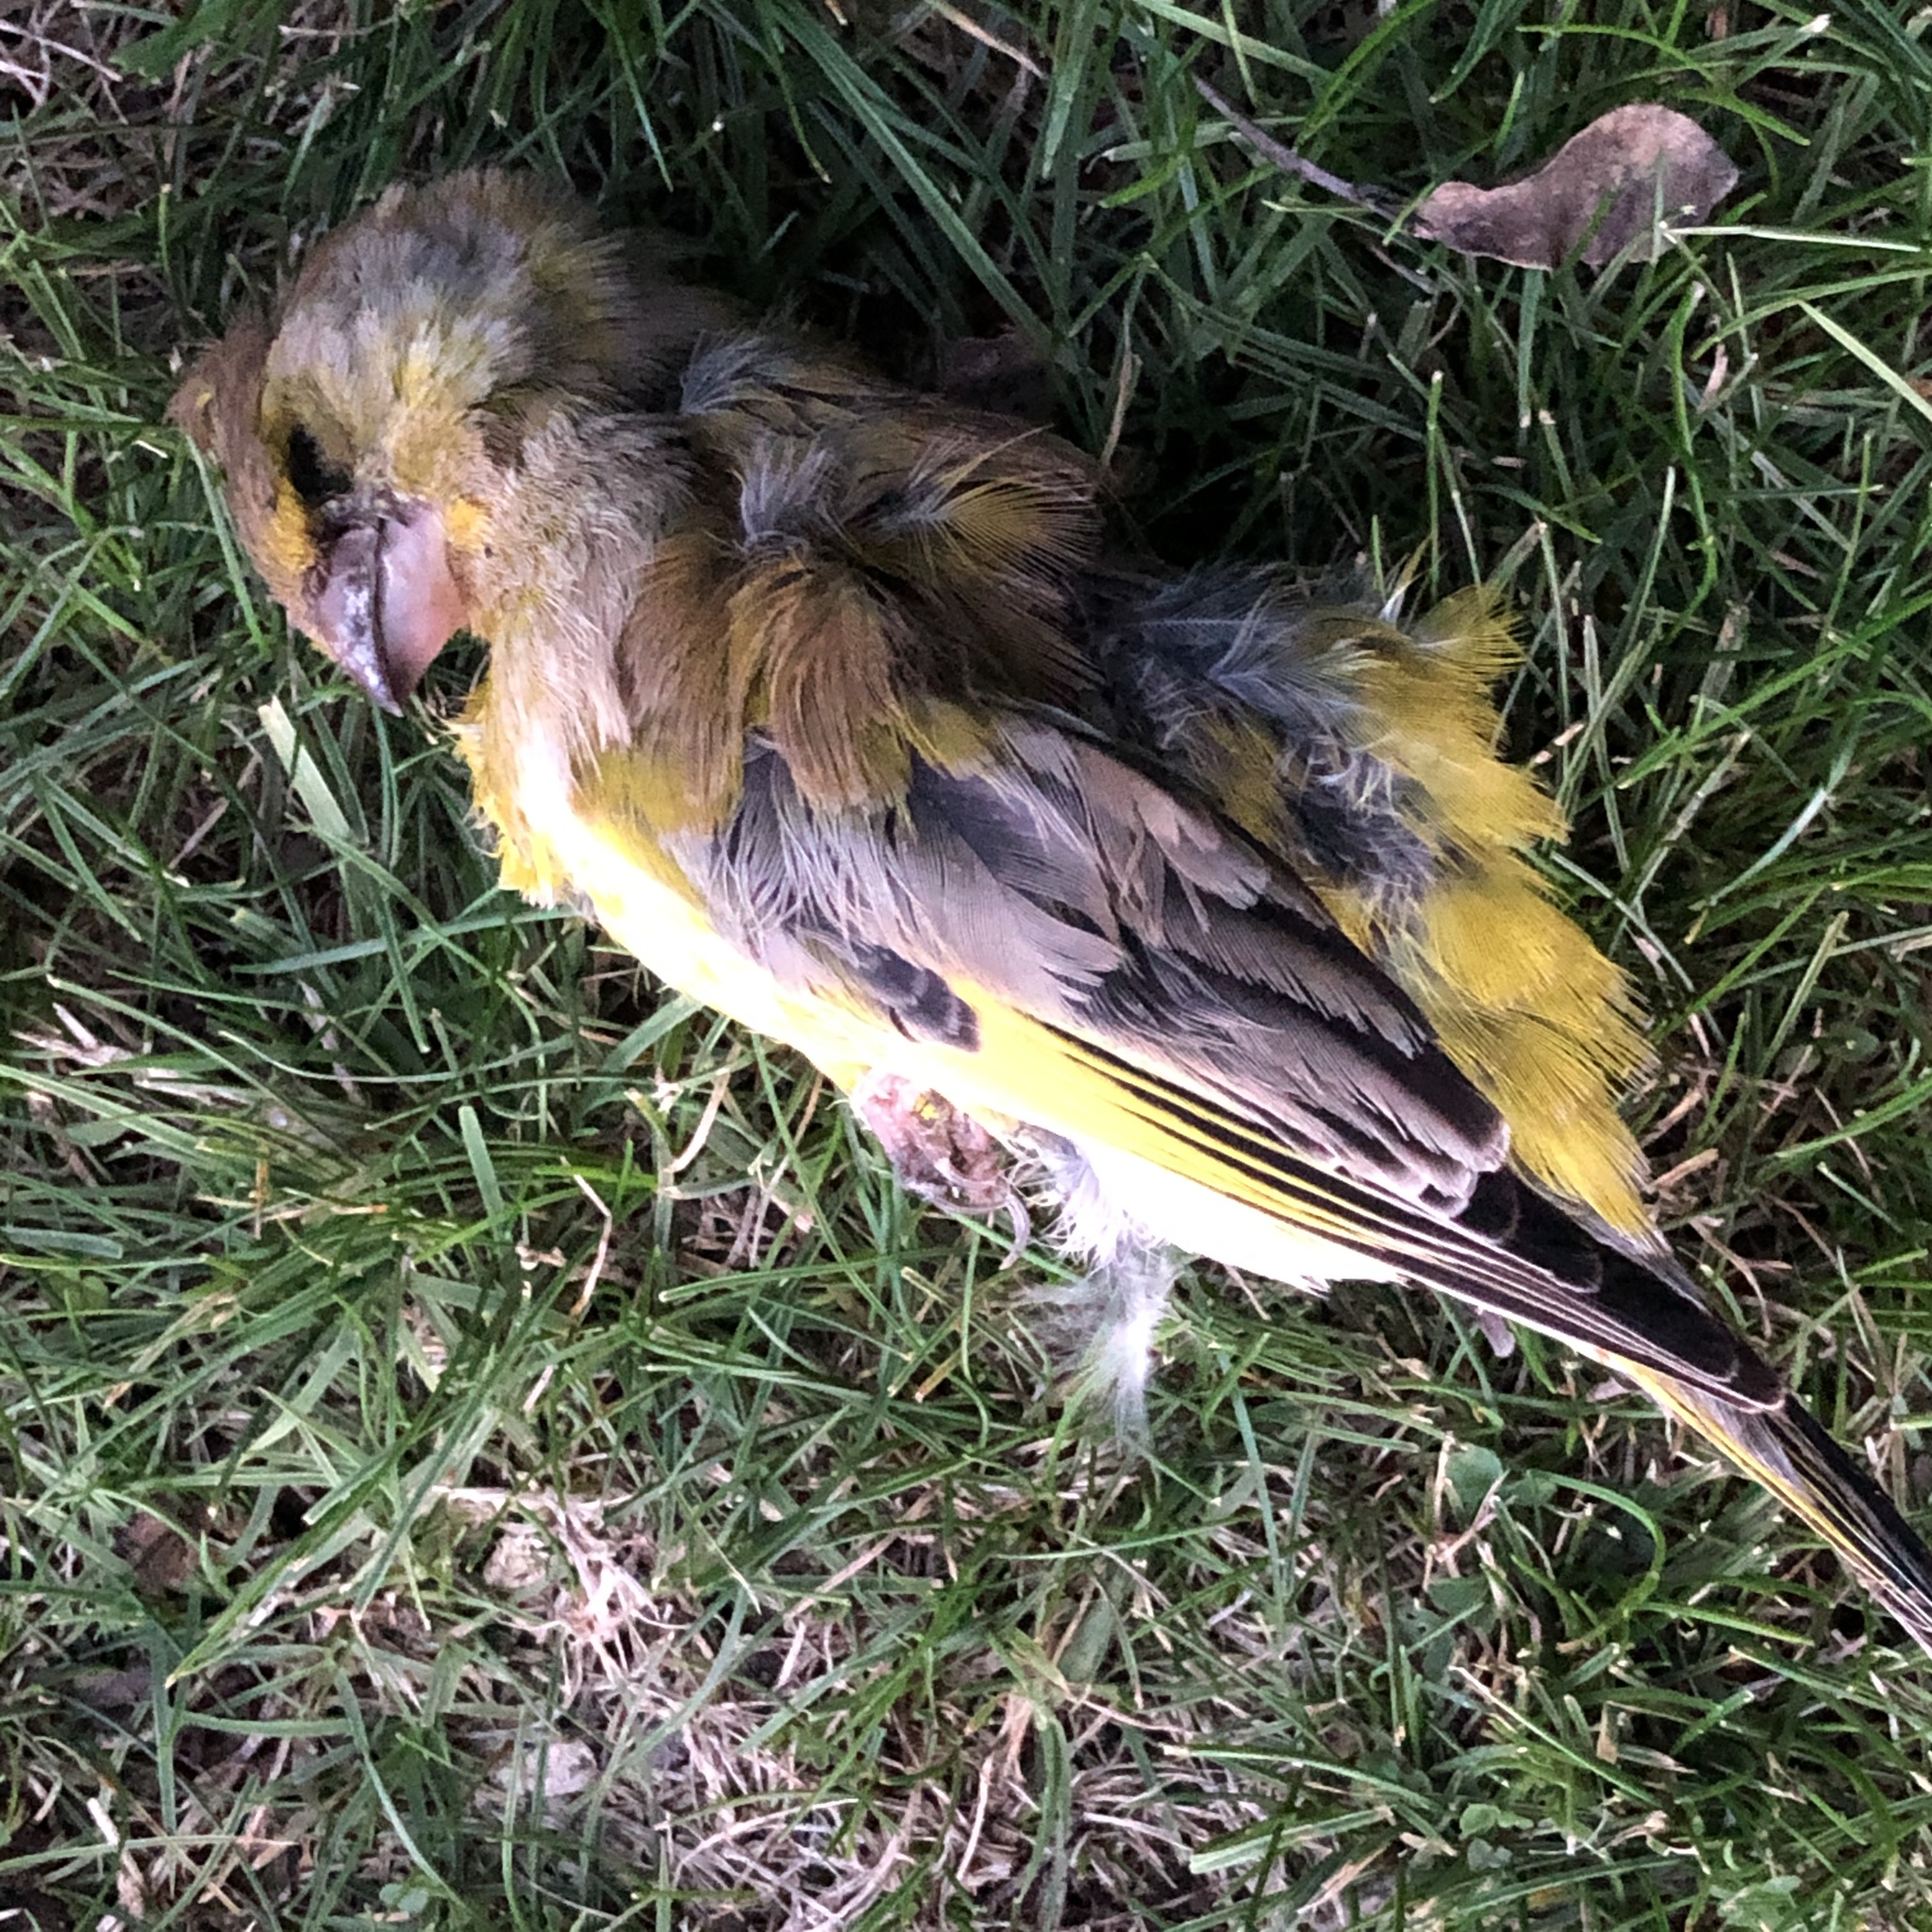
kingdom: Plantae
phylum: Tracheophyta
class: Liliopsida
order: Poales
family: Poaceae
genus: Chloris
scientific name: Chloris chloris
